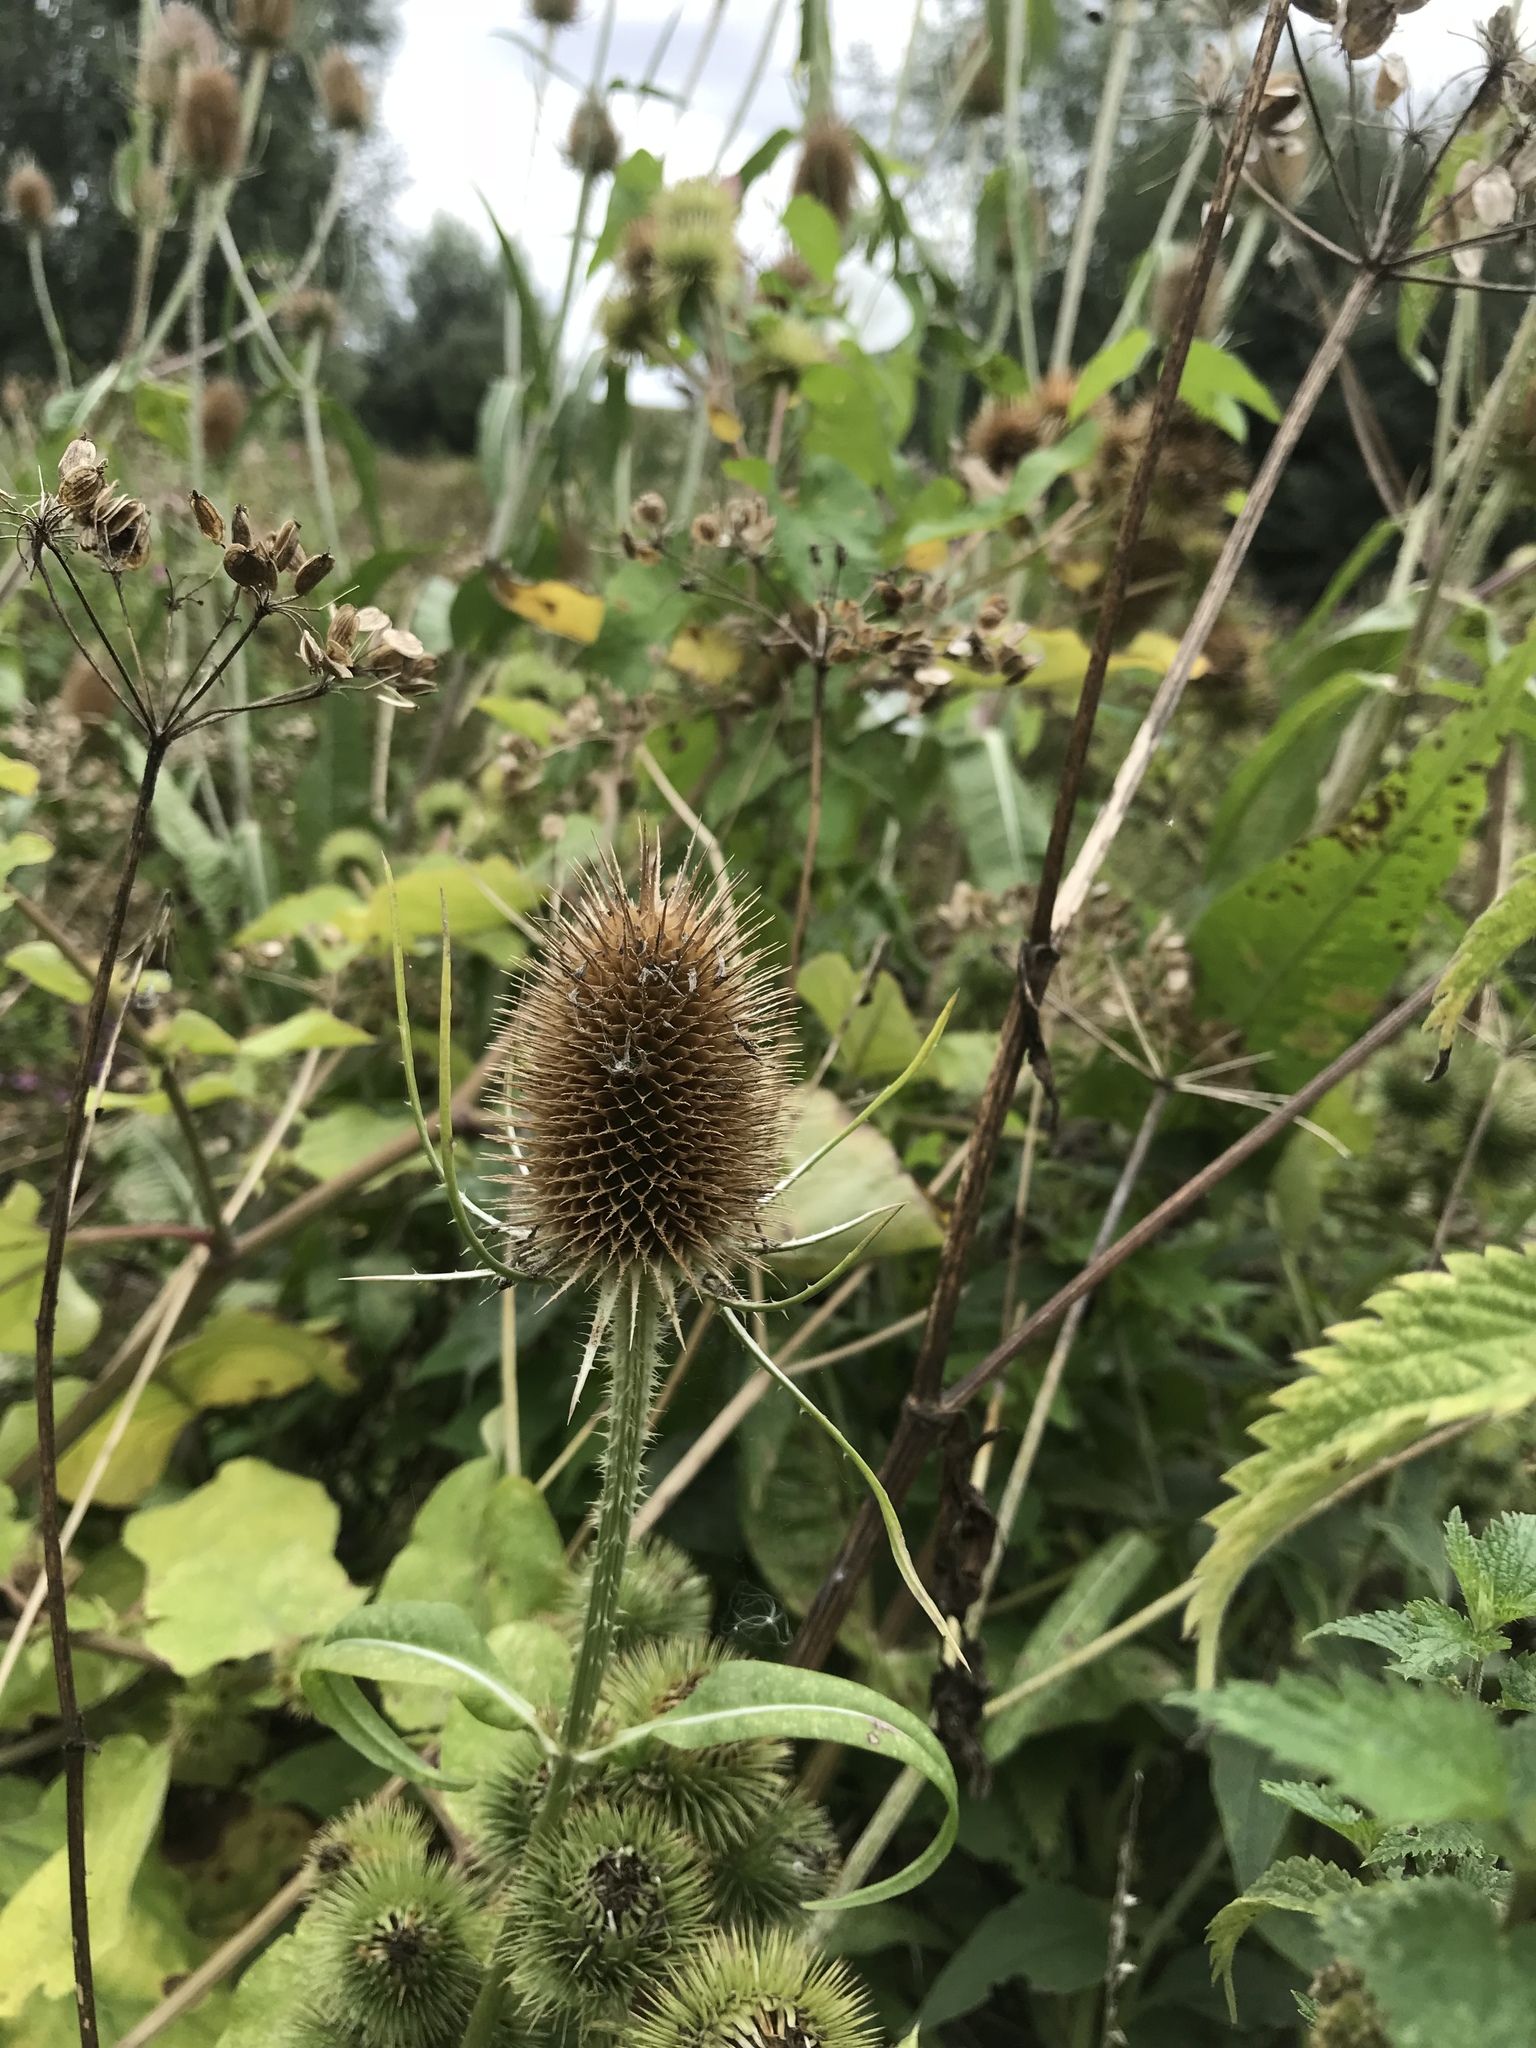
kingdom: Plantae
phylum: Tracheophyta
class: Magnoliopsida
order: Dipsacales
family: Caprifoliaceae
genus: Dipsacus
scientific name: Dipsacus fullonum
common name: Teasel
